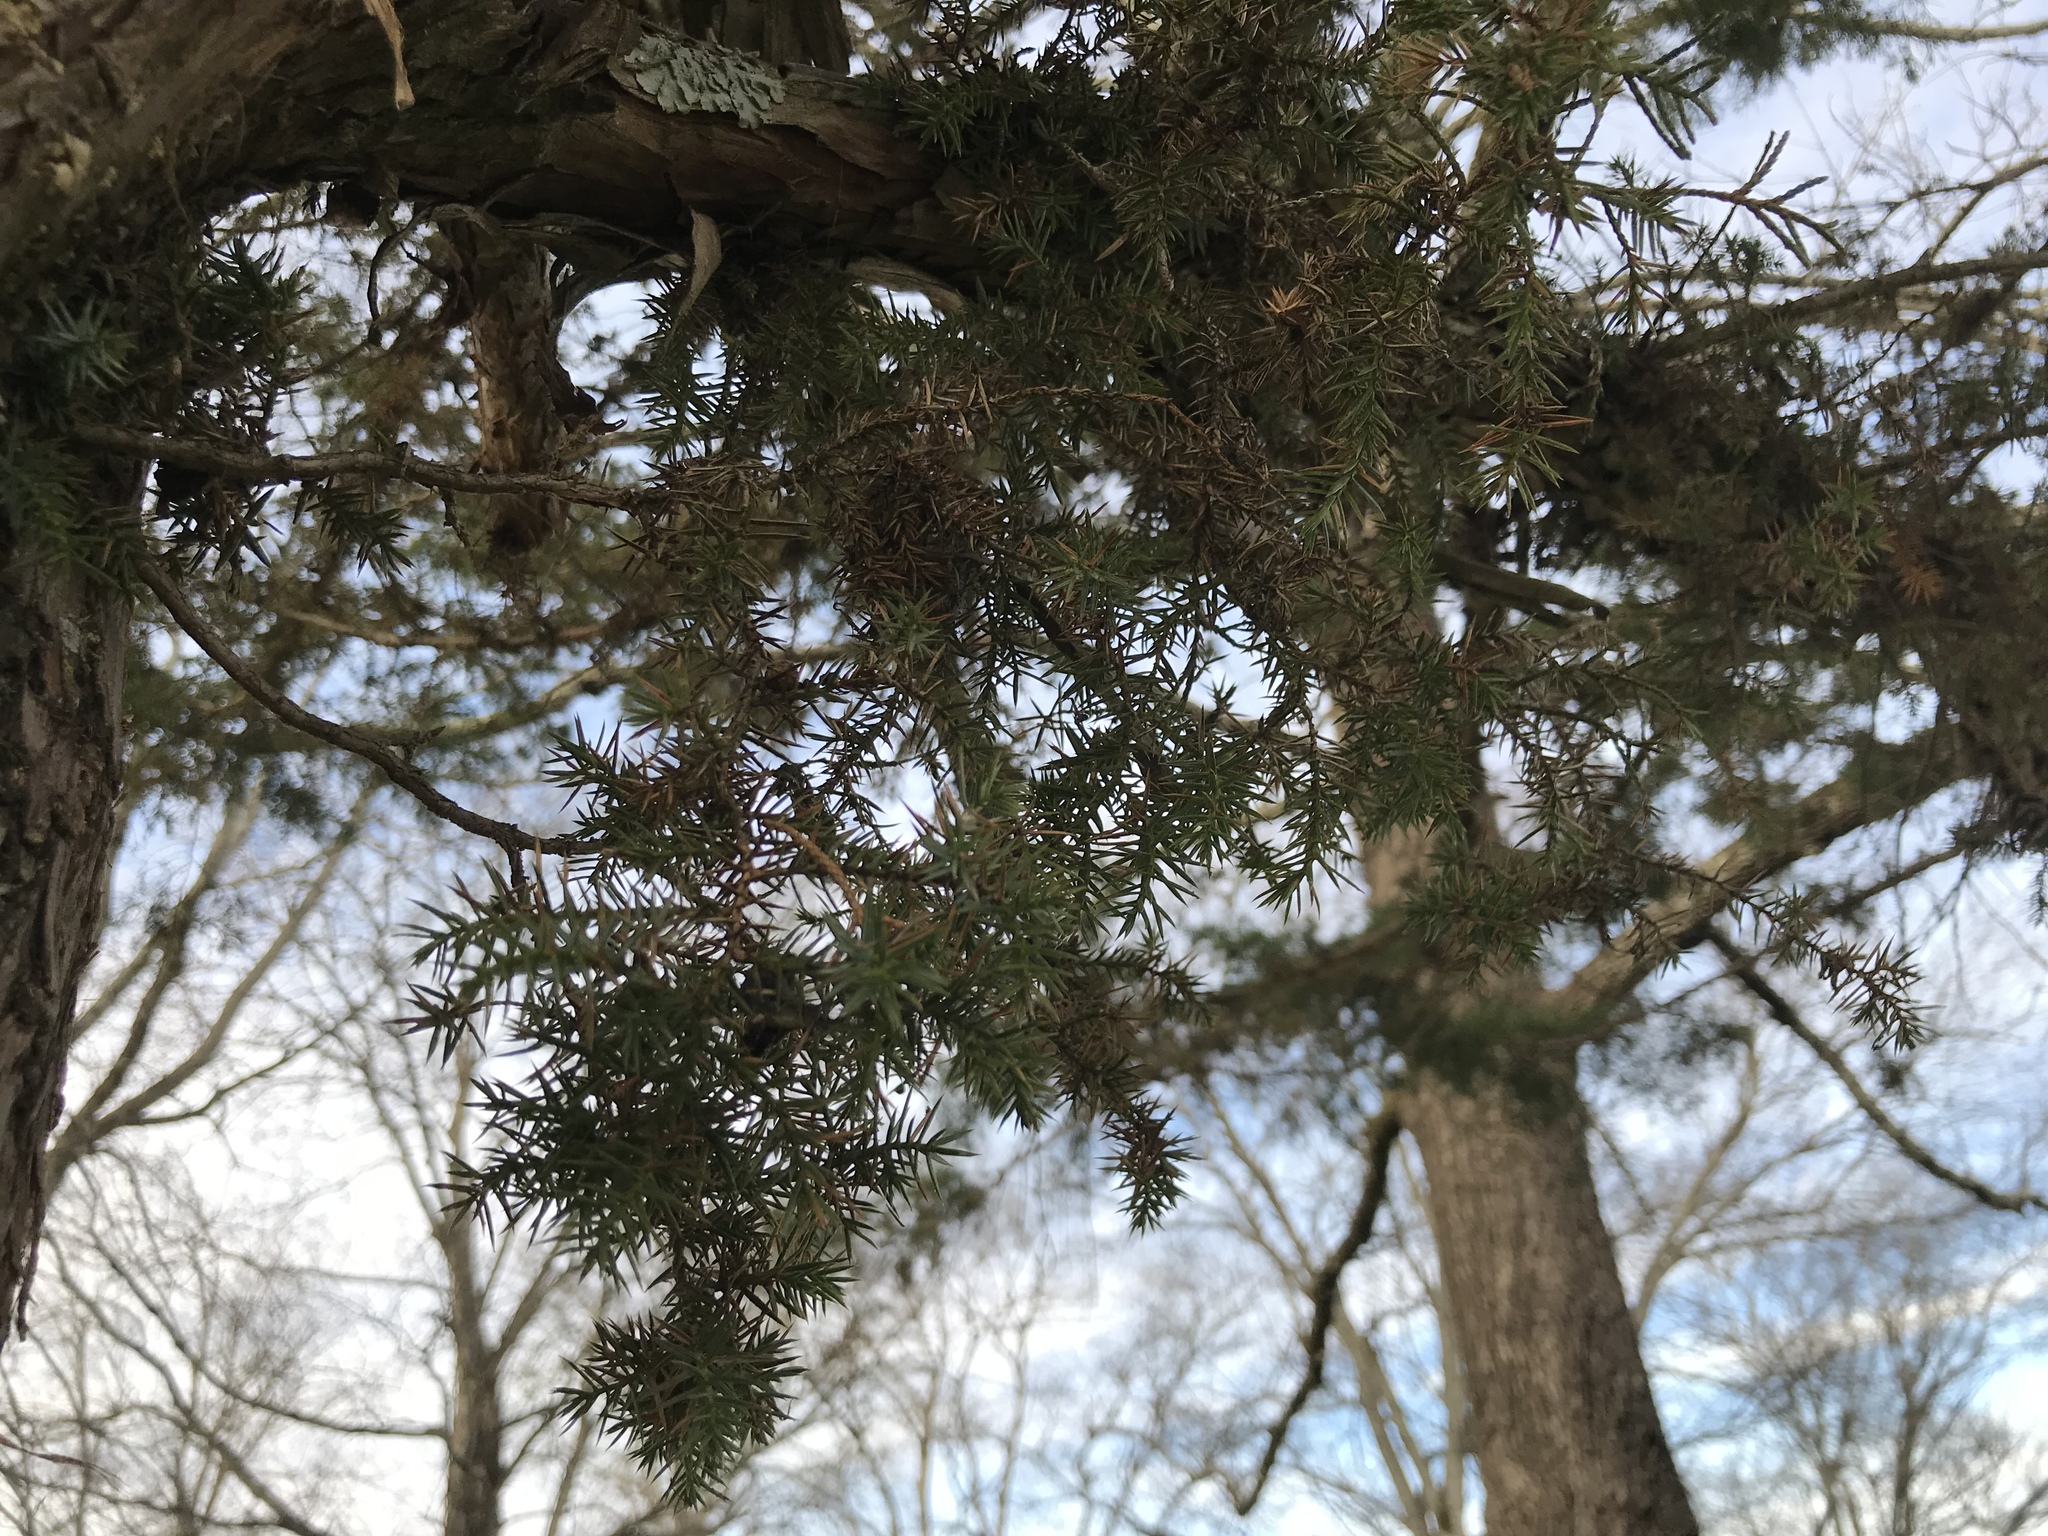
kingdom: Plantae
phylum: Tracheophyta
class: Pinopsida
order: Pinales
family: Cupressaceae
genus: Juniperus
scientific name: Juniperus virginiana
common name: Red juniper
